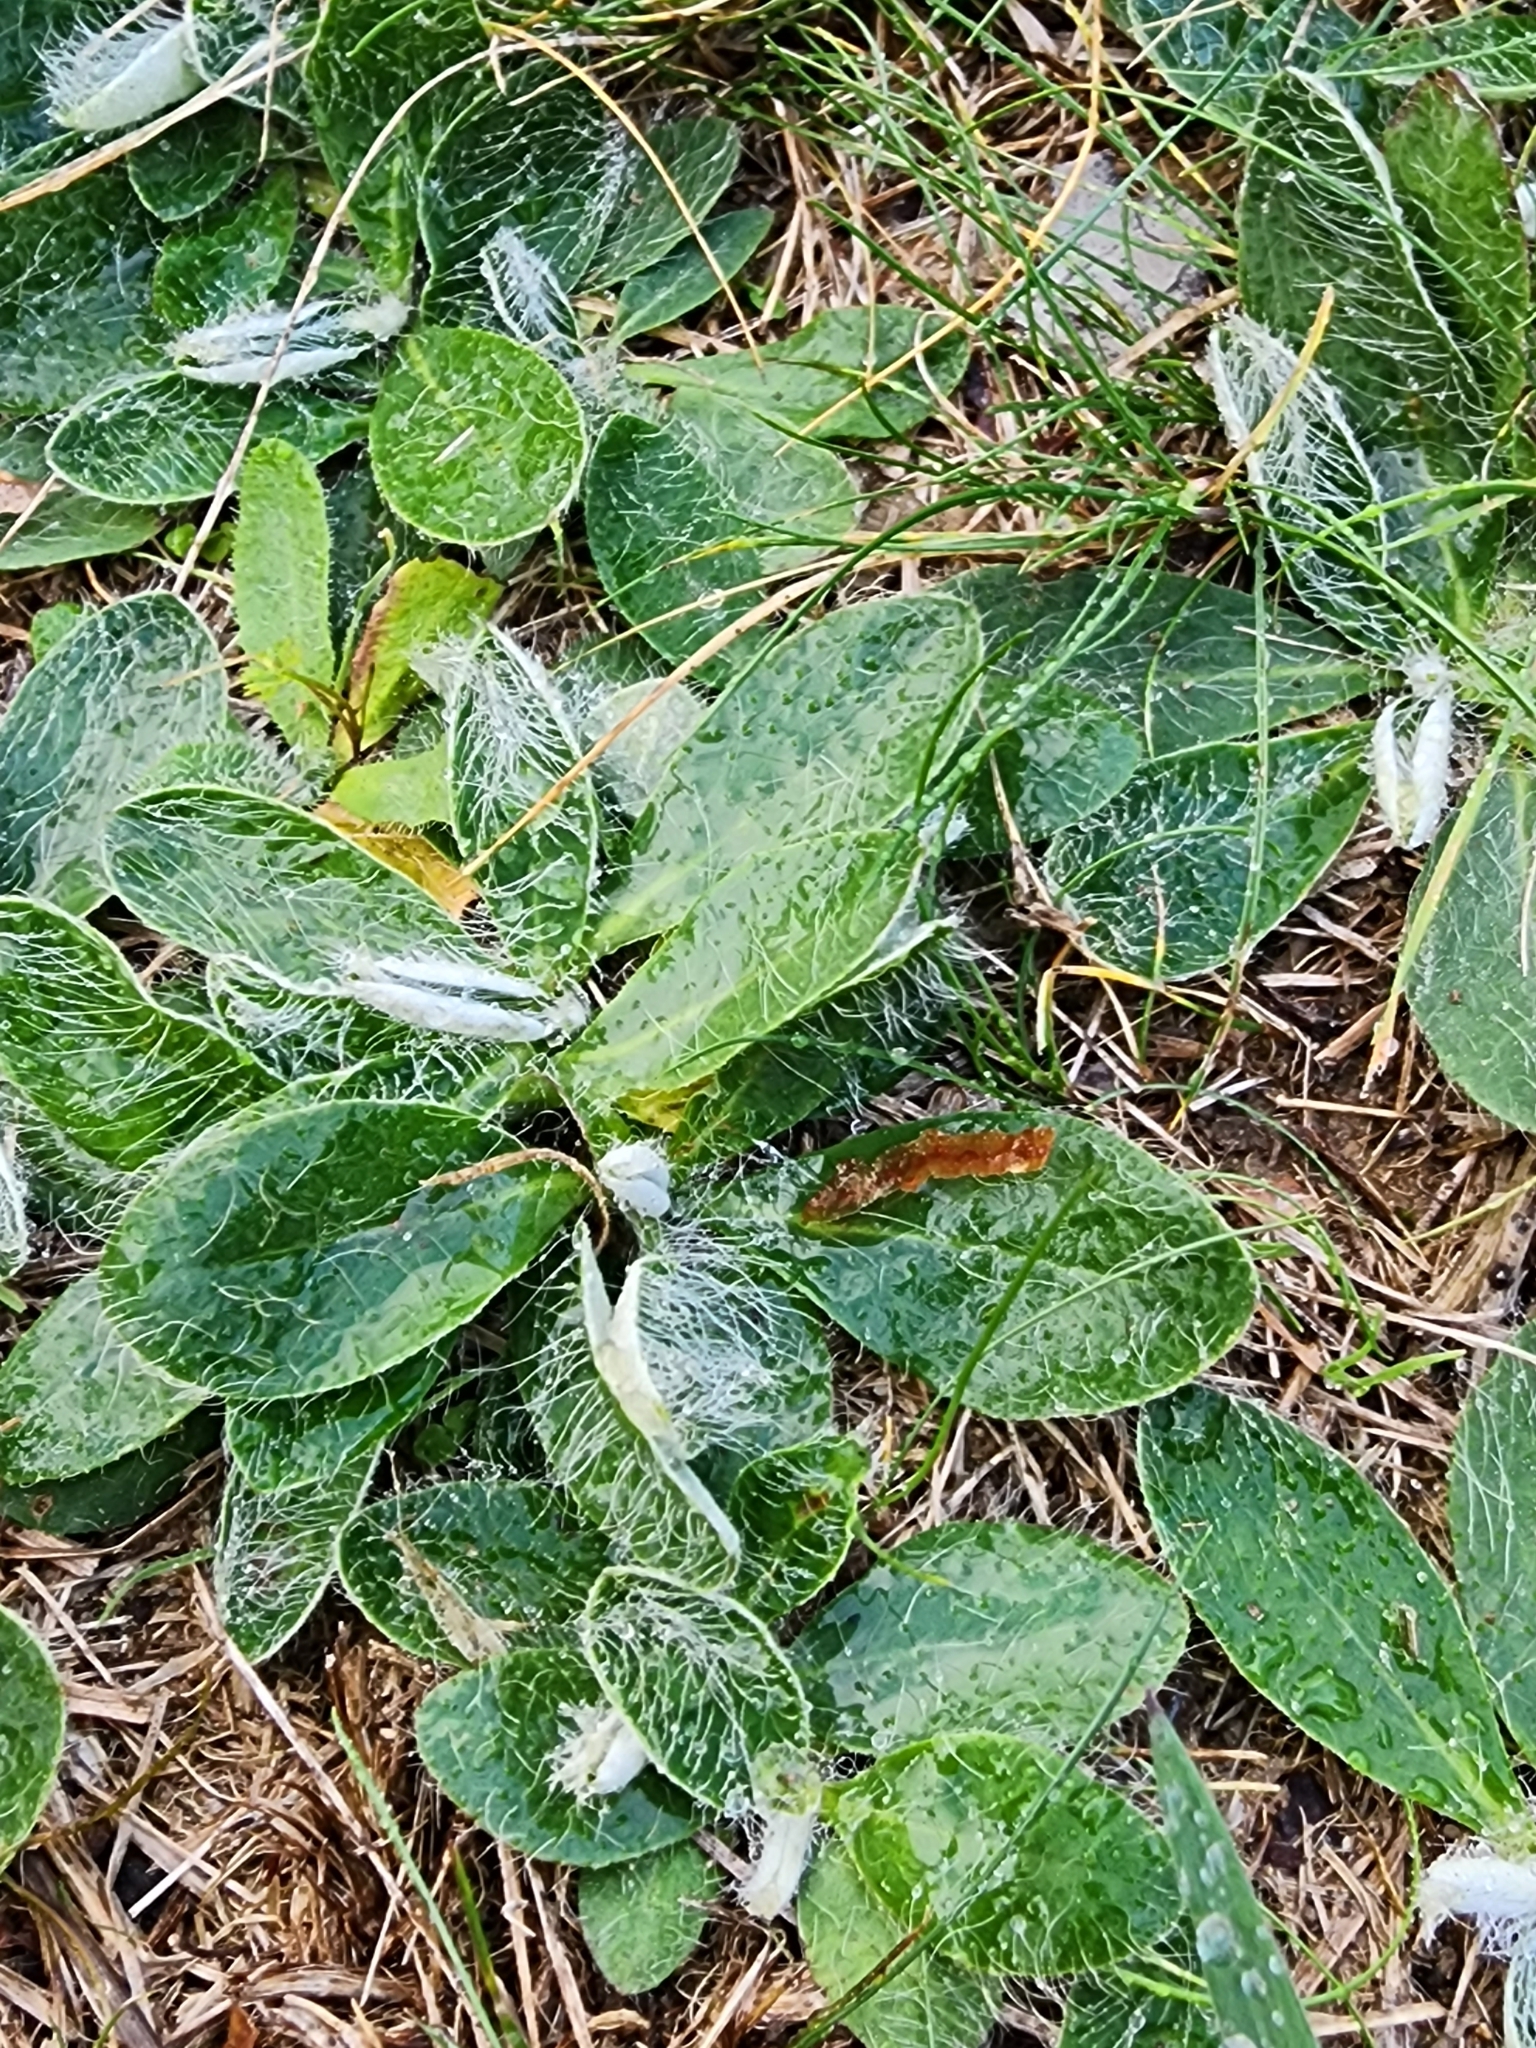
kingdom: Plantae
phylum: Tracheophyta
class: Magnoliopsida
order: Asterales
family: Asteraceae
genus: Pilosella
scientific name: Pilosella officinarum
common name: Mouse-ear hawkweed
